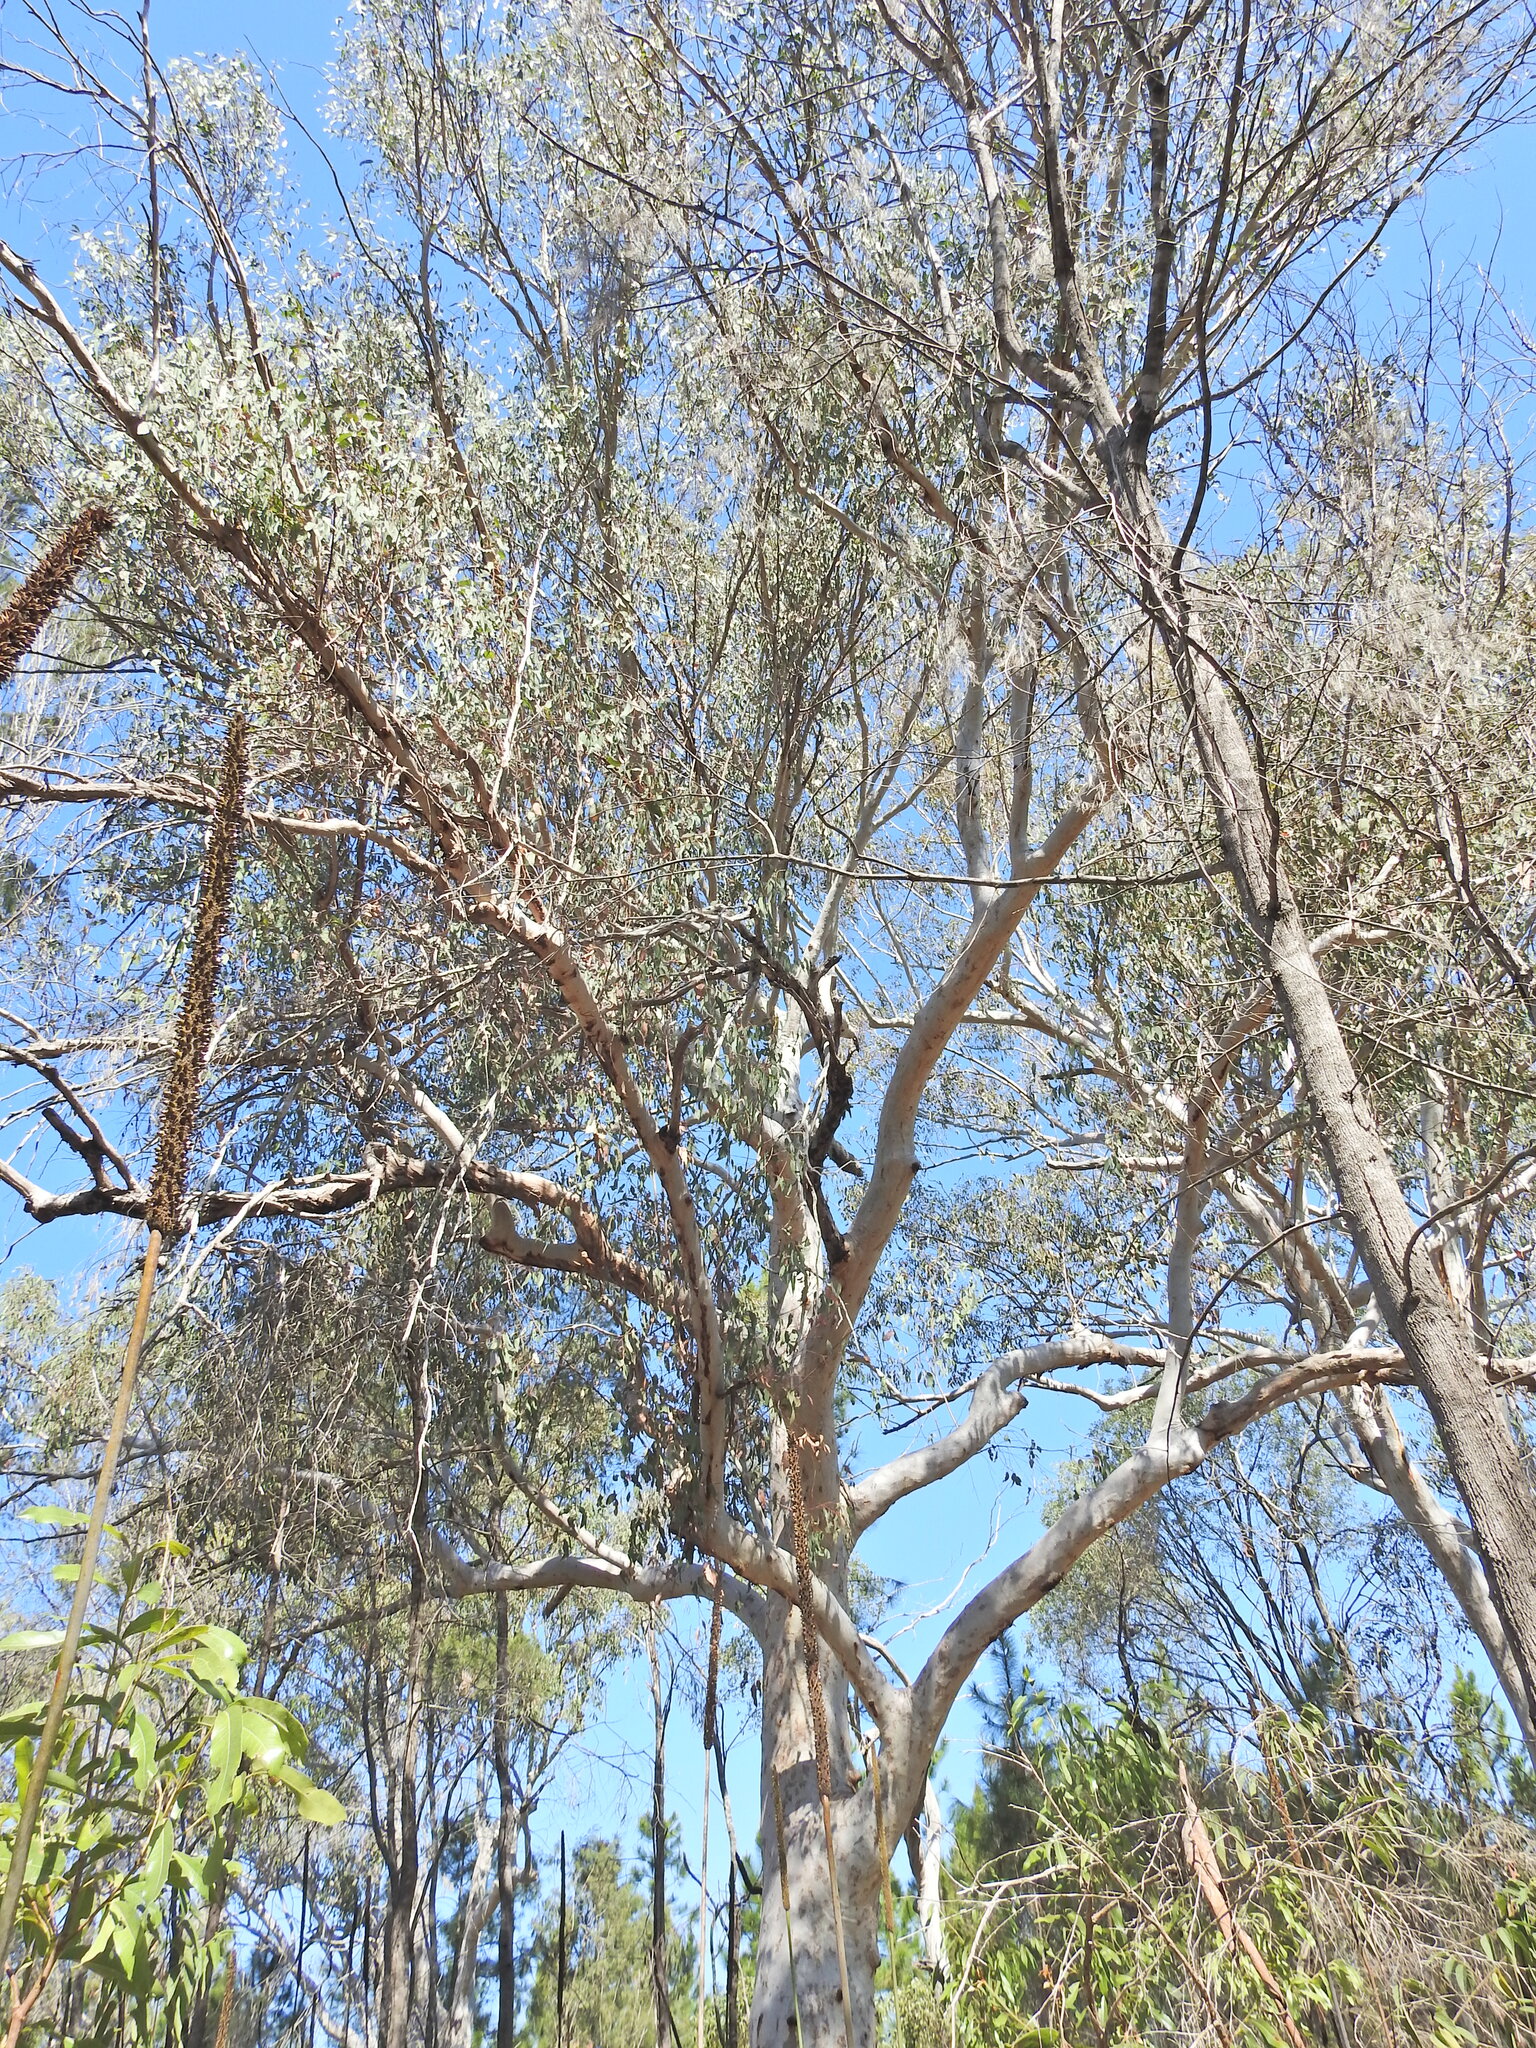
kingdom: Plantae
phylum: Tracheophyta
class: Magnoliopsida
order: Myrtales
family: Myrtaceae
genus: Eucalyptus
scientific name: Eucalyptus racemosa
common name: Scribbly gum
